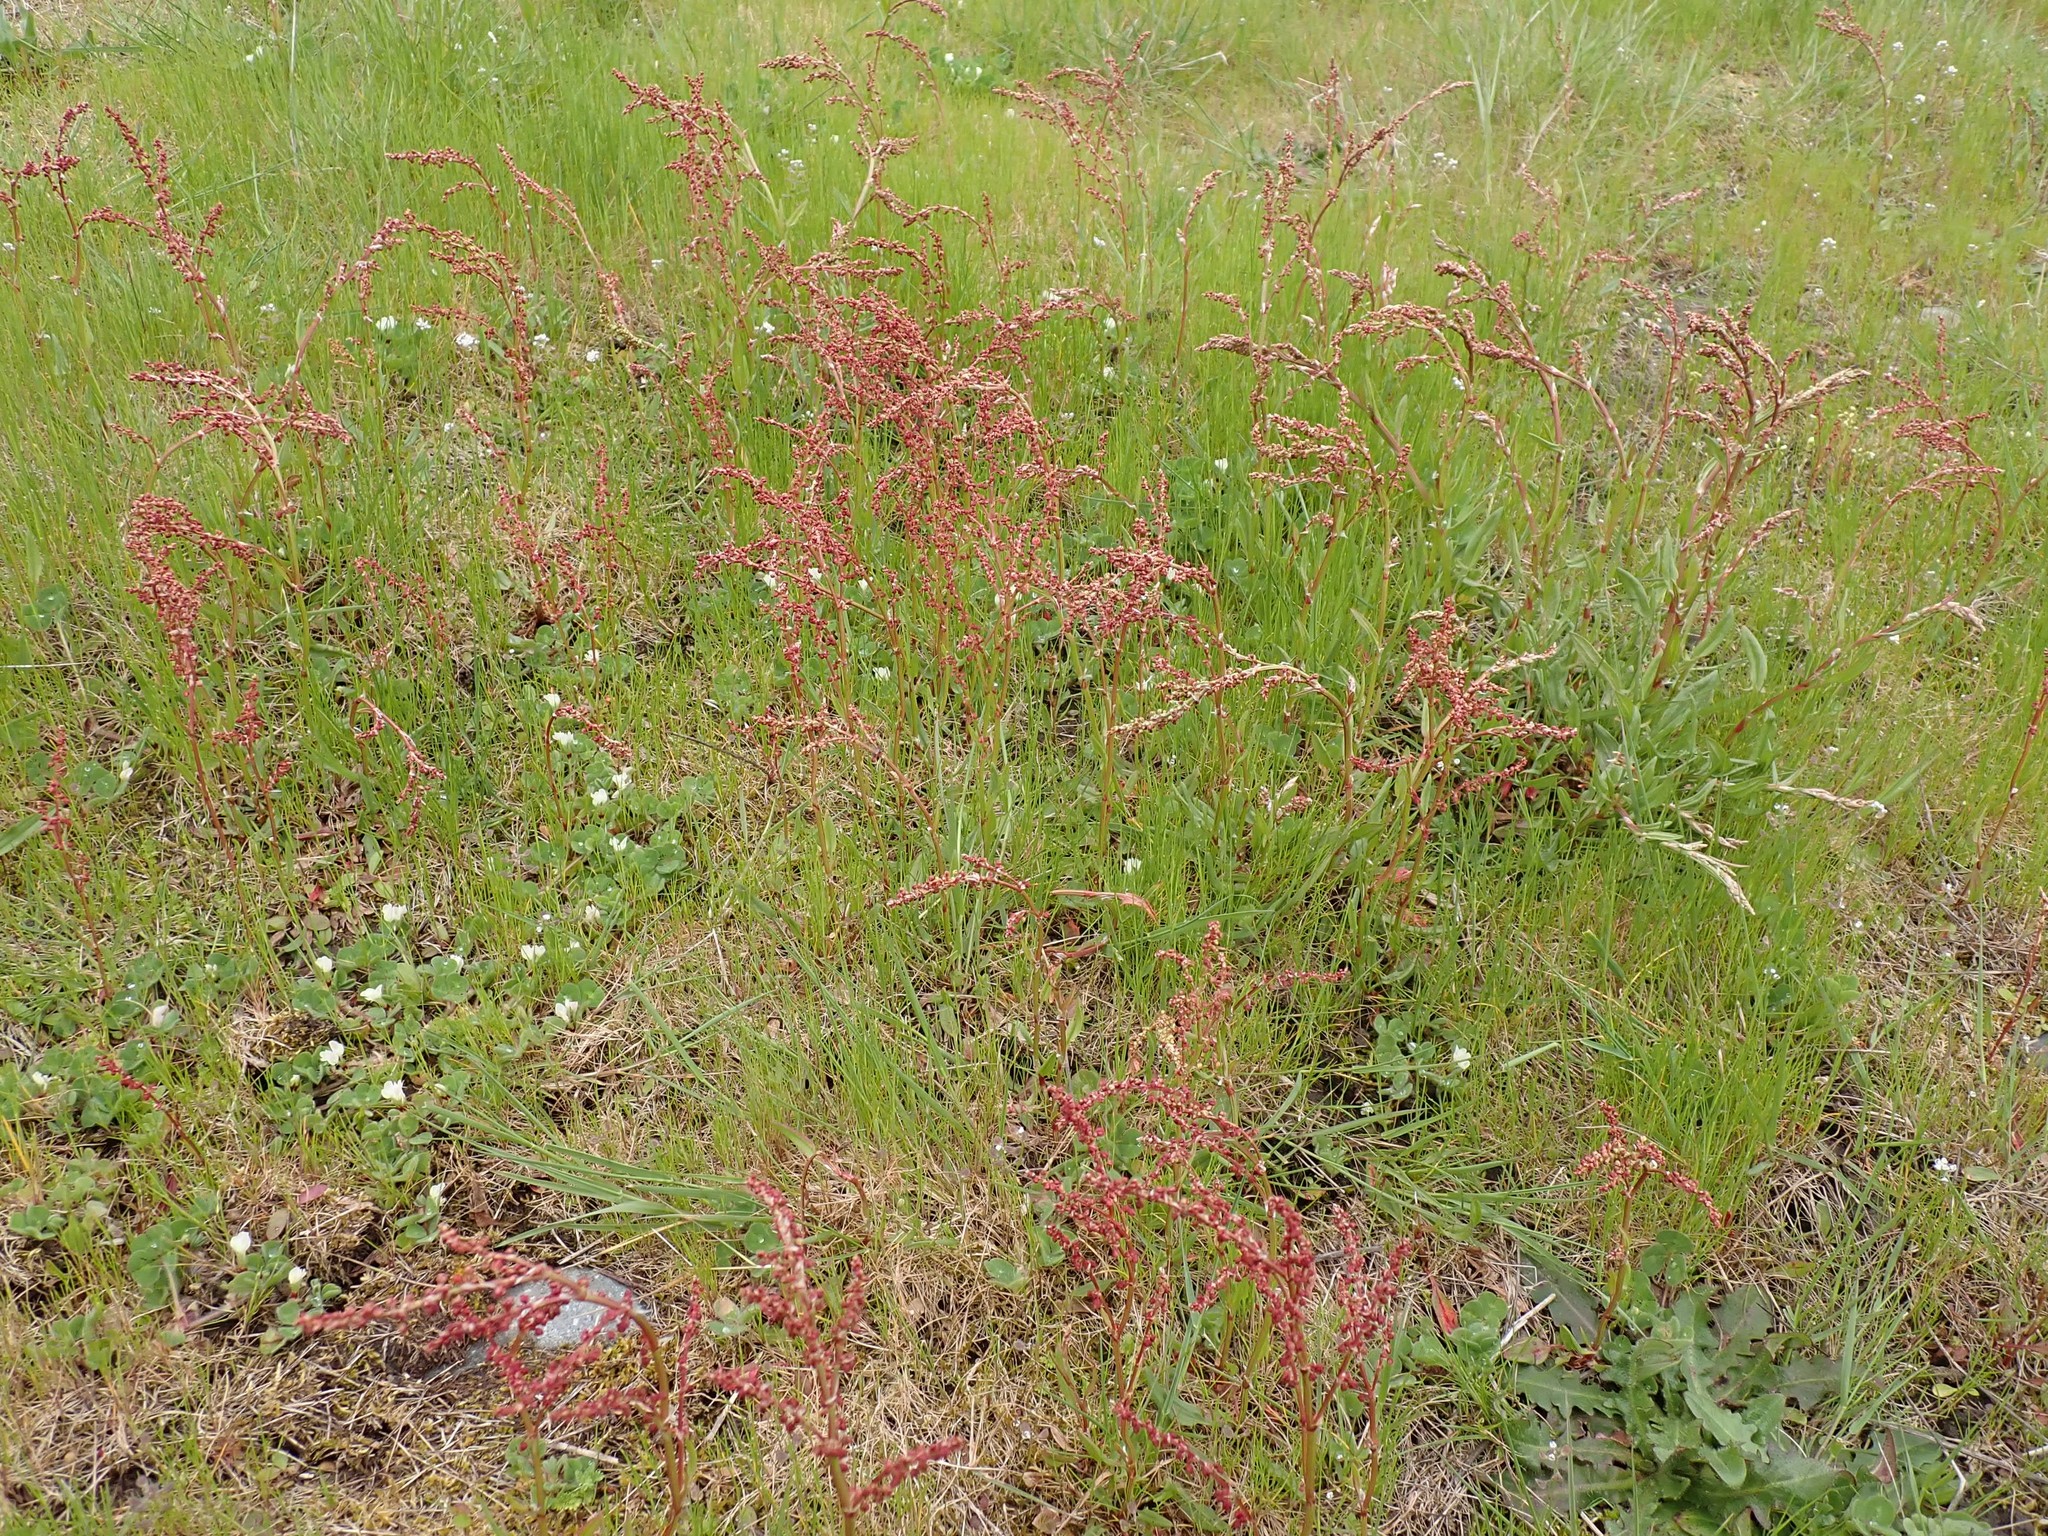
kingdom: Plantae
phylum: Tracheophyta
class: Magnoliopsida
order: Caryophyllales
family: Polygonaceae
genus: Rumex
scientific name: Rumex acetosella
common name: Common sheep sorrel
